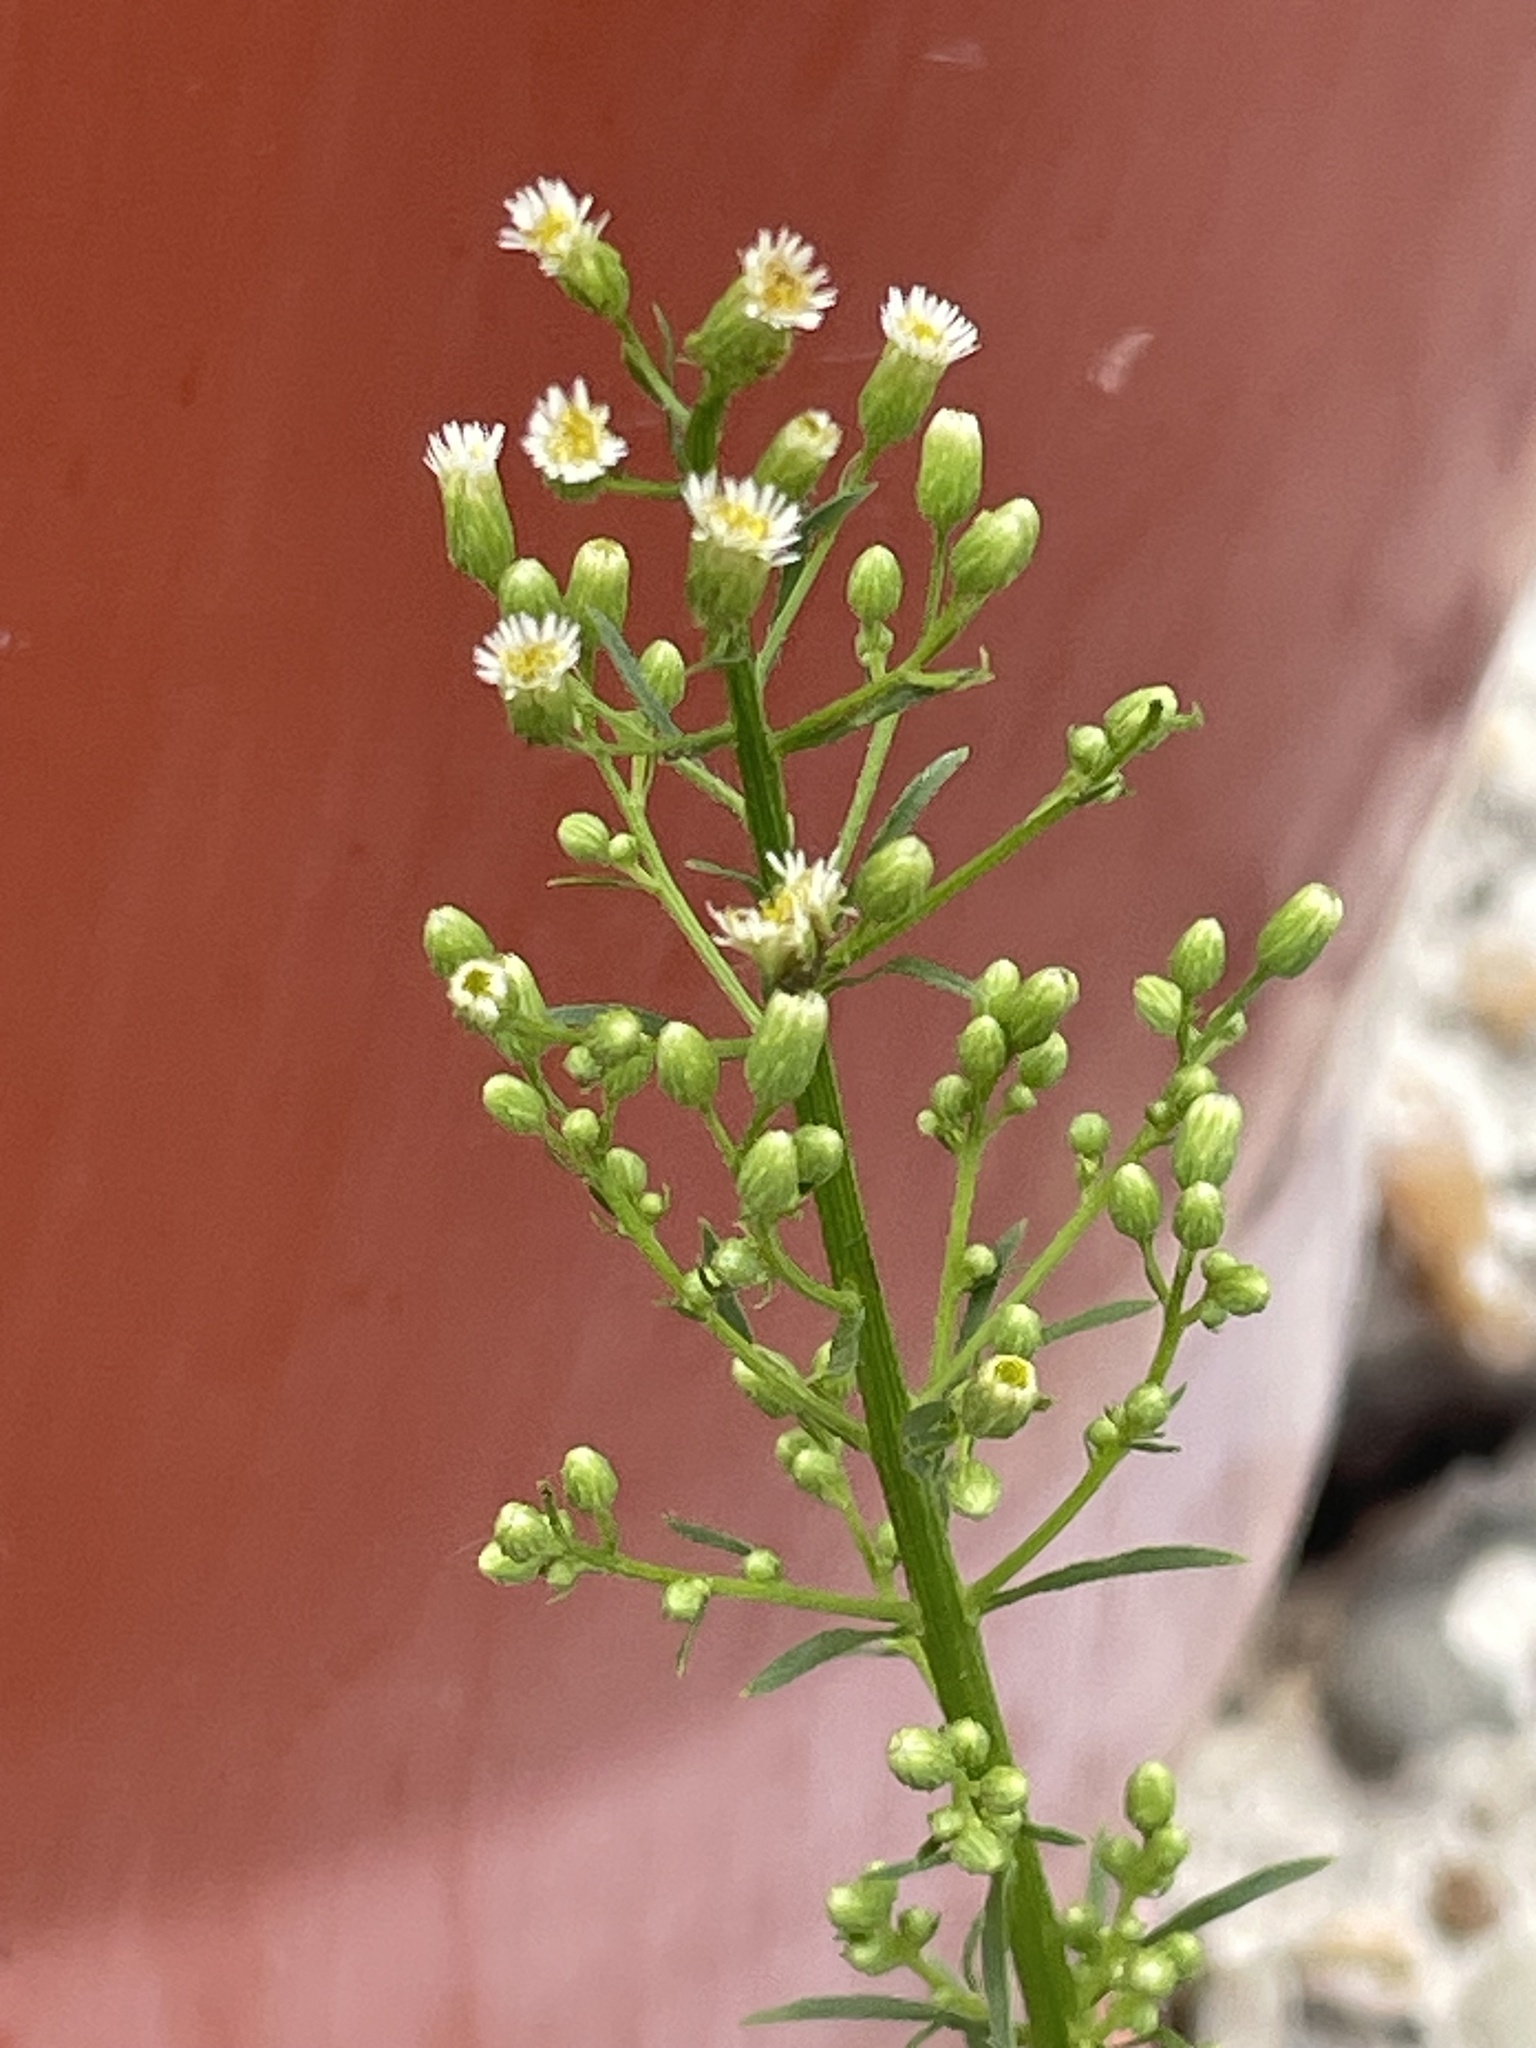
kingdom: Plantae
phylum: Tracheophyta
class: Magnoliopsida
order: Asterales
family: Asteraceae
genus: Erigeron
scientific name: Erigeron canadensis
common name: Canadian fleabane
